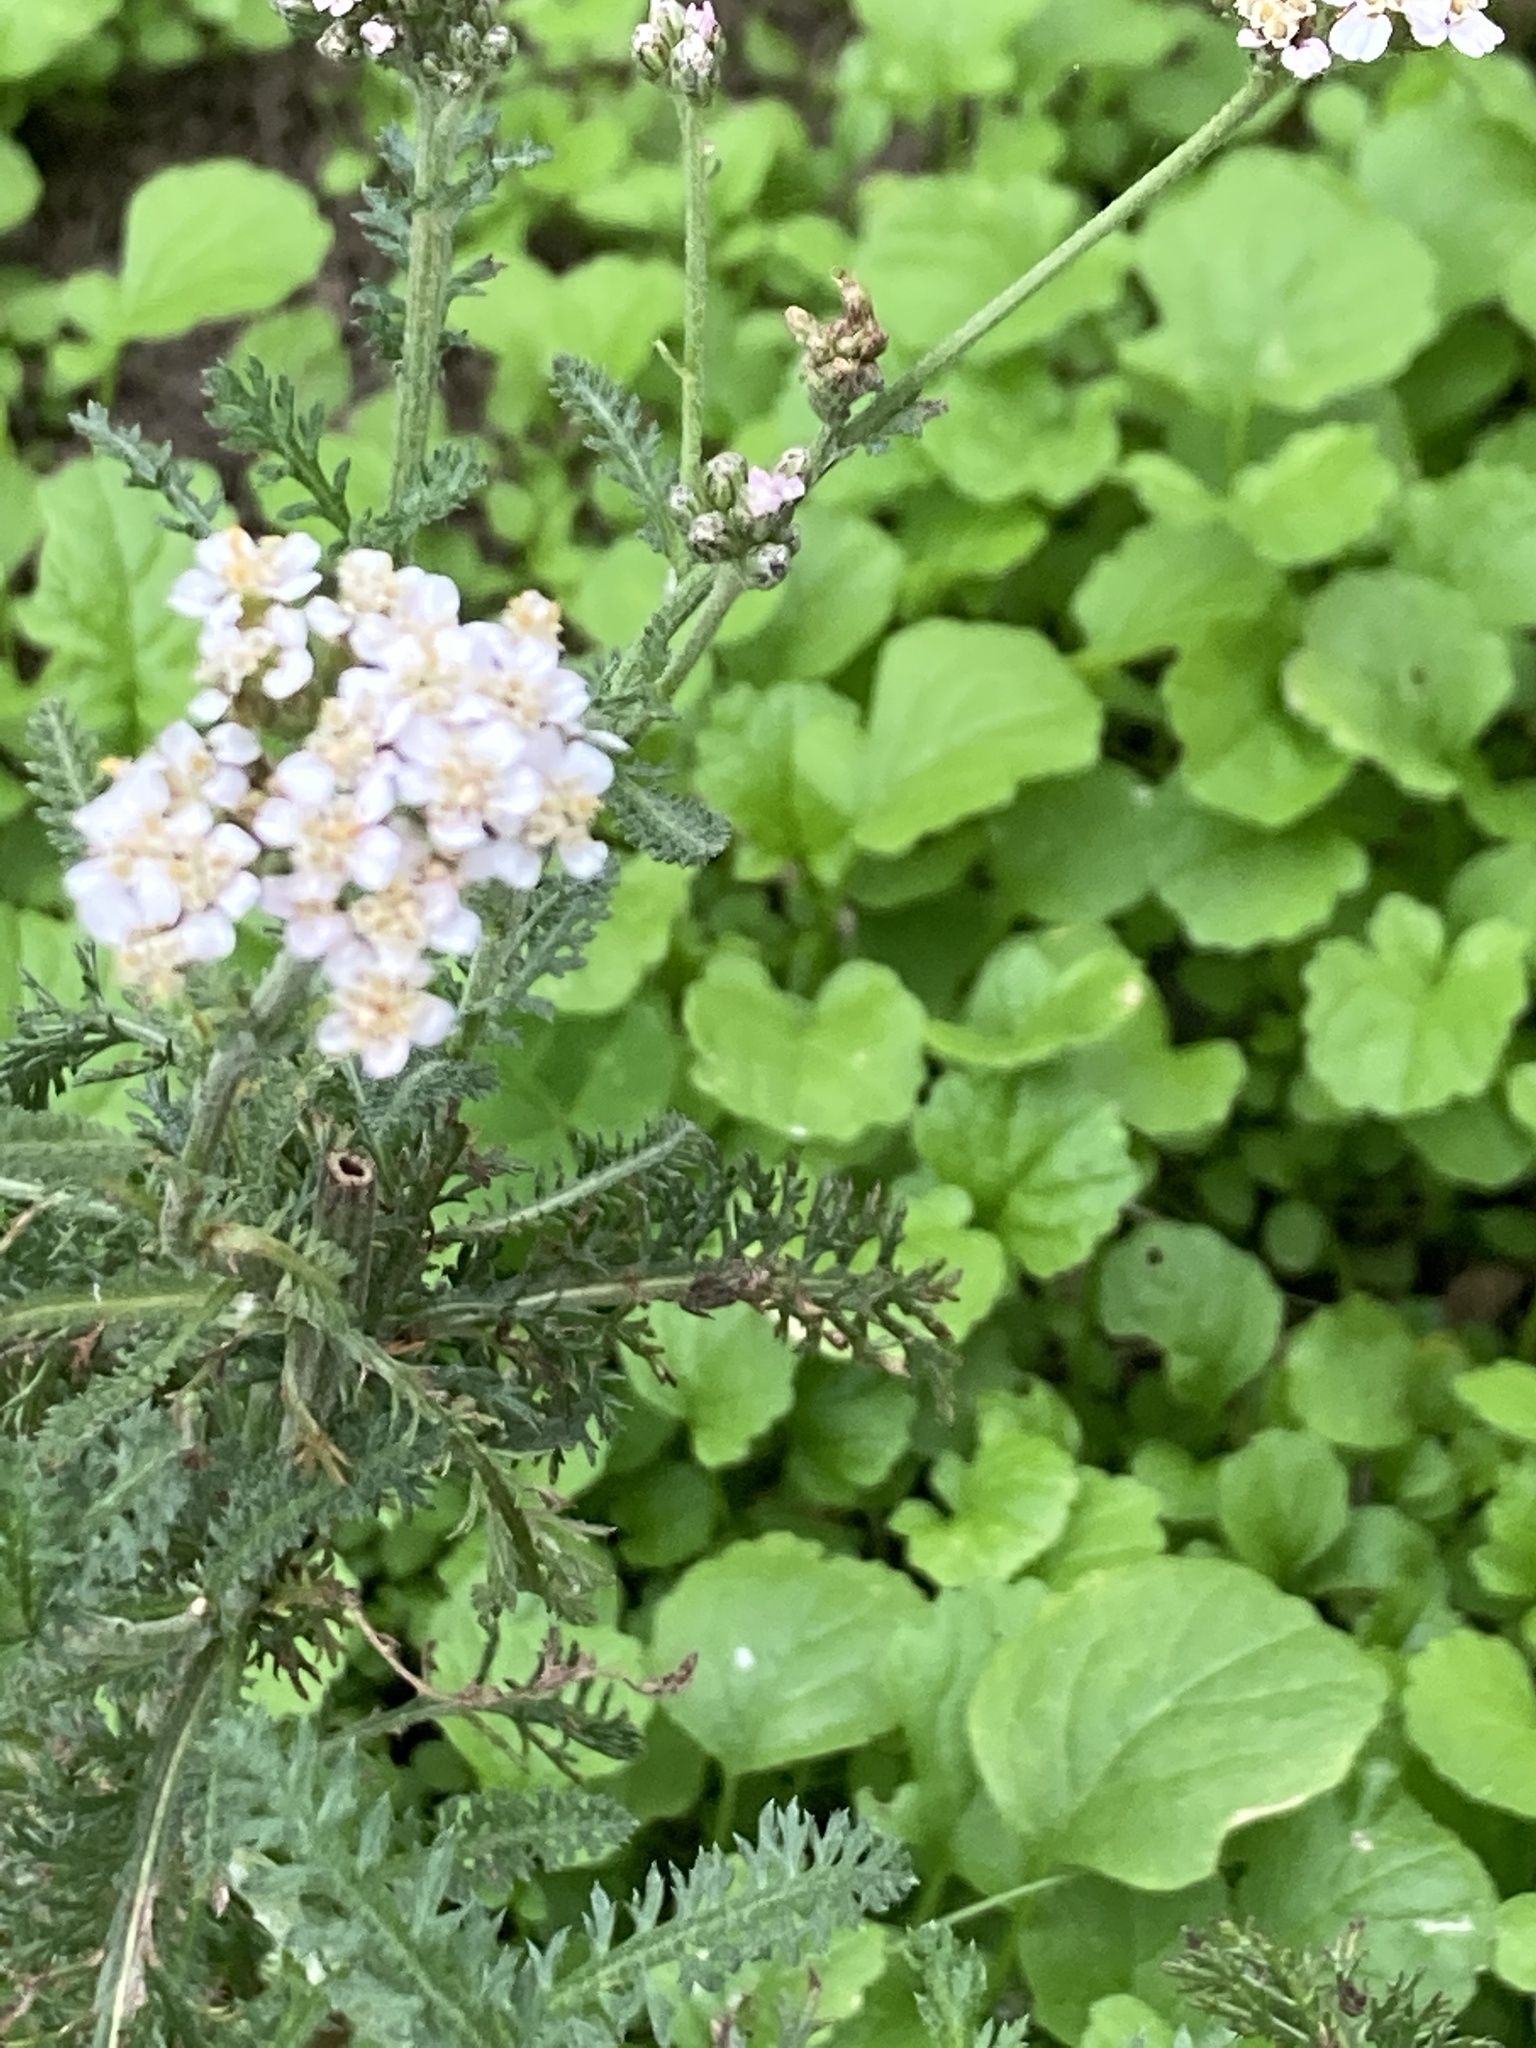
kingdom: Plantae
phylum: Tracheophyta
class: Magnoliopsida
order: Asterales
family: Asteraceae
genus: Achillea
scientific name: Achillea millefolium
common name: Yarrow
